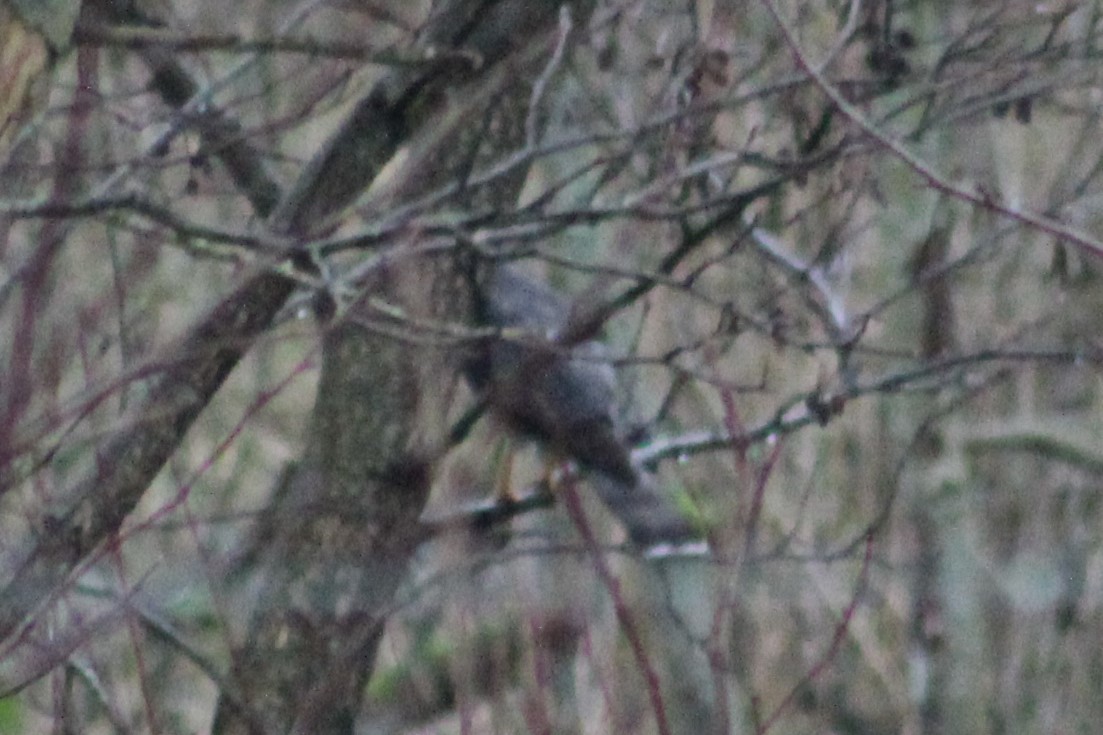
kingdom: Animalia
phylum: Chordata
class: Aves
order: Accipitriformes
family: Accipitridae
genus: Accipiter
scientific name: Accipiter nisus
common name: Eurasian sparrowhawk
